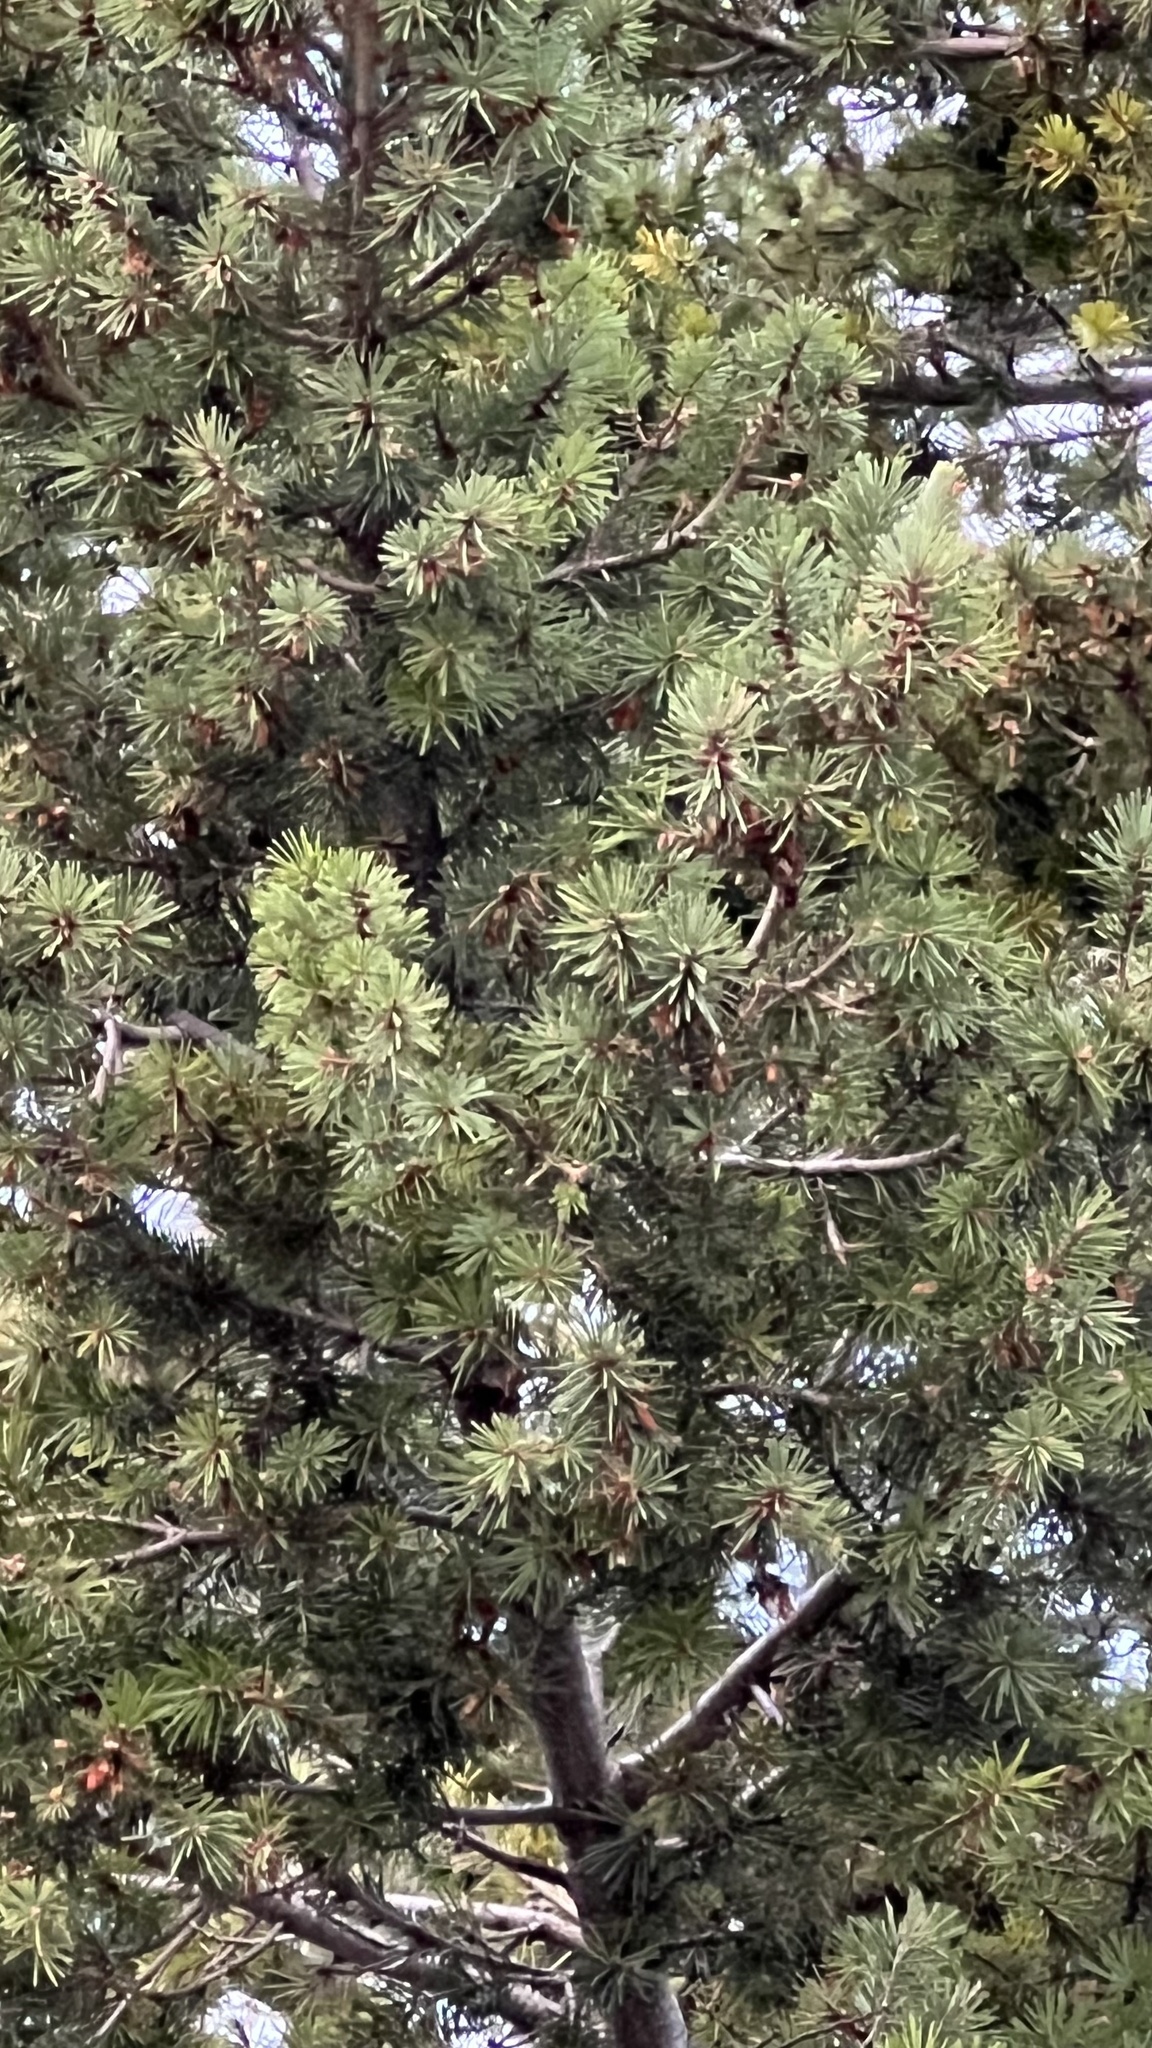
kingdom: Plantae
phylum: Tracheophyta
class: Pinopsida
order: Pinales
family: Pinaceae
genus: Pseudotsuga
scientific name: Pseudotsuga menziesii
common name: Douglas fir
